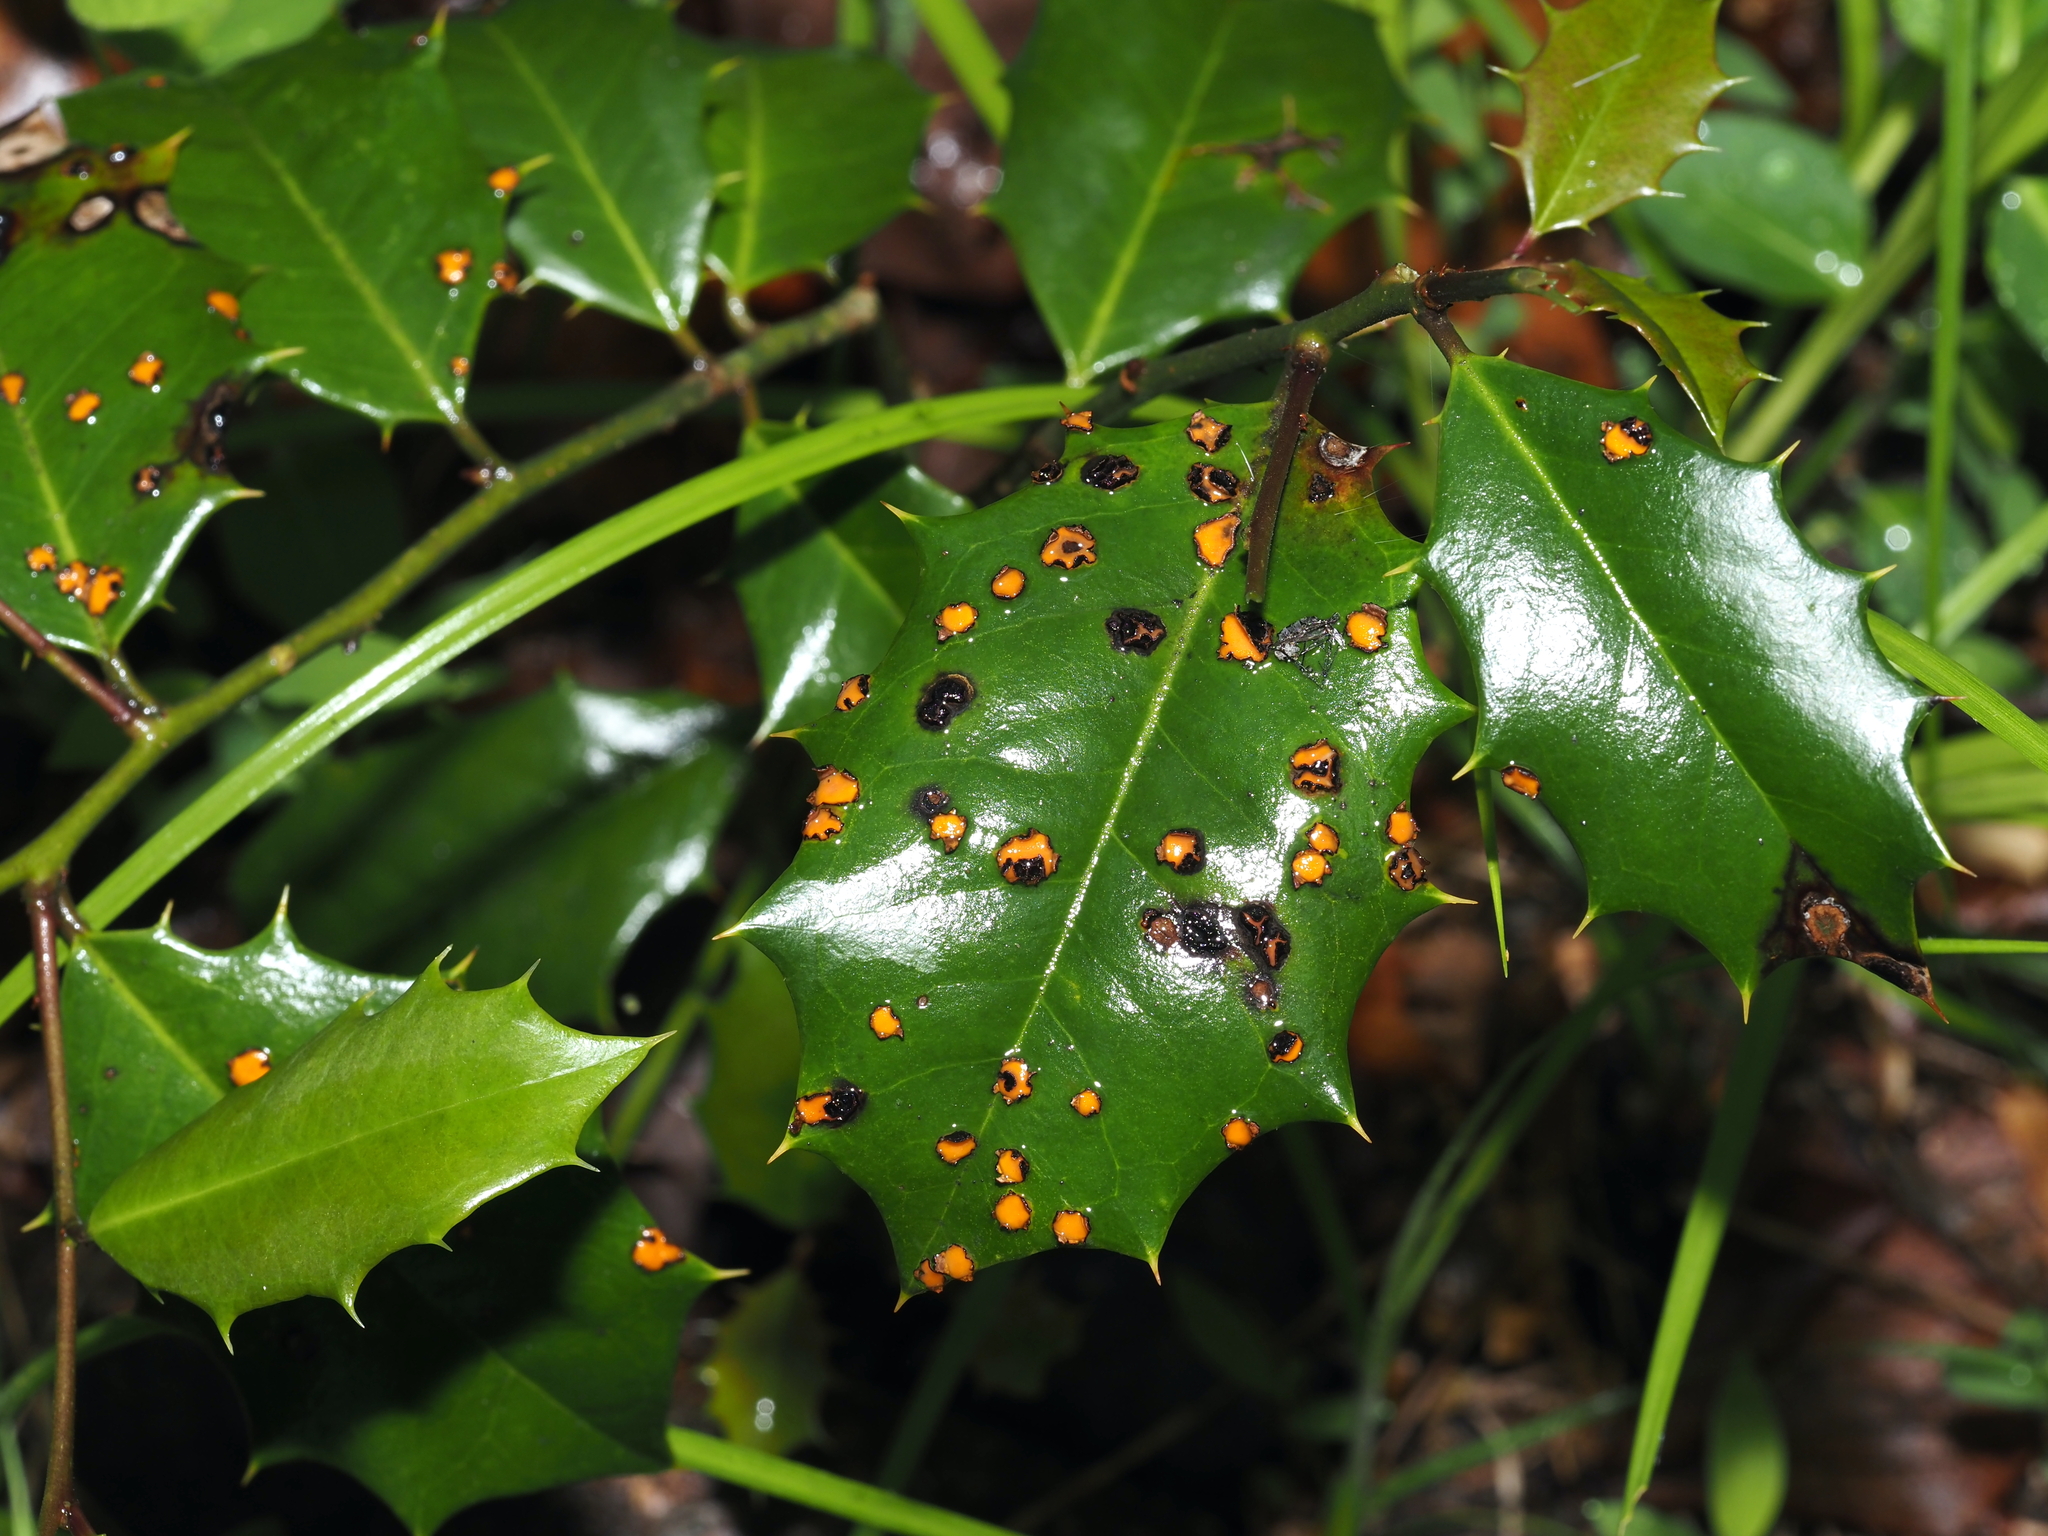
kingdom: Fungi
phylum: Ascomycota
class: Leotiomycetes
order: Rhytismatales
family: Rhytismataceae
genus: Macroderma
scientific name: Macroderma curtisii
